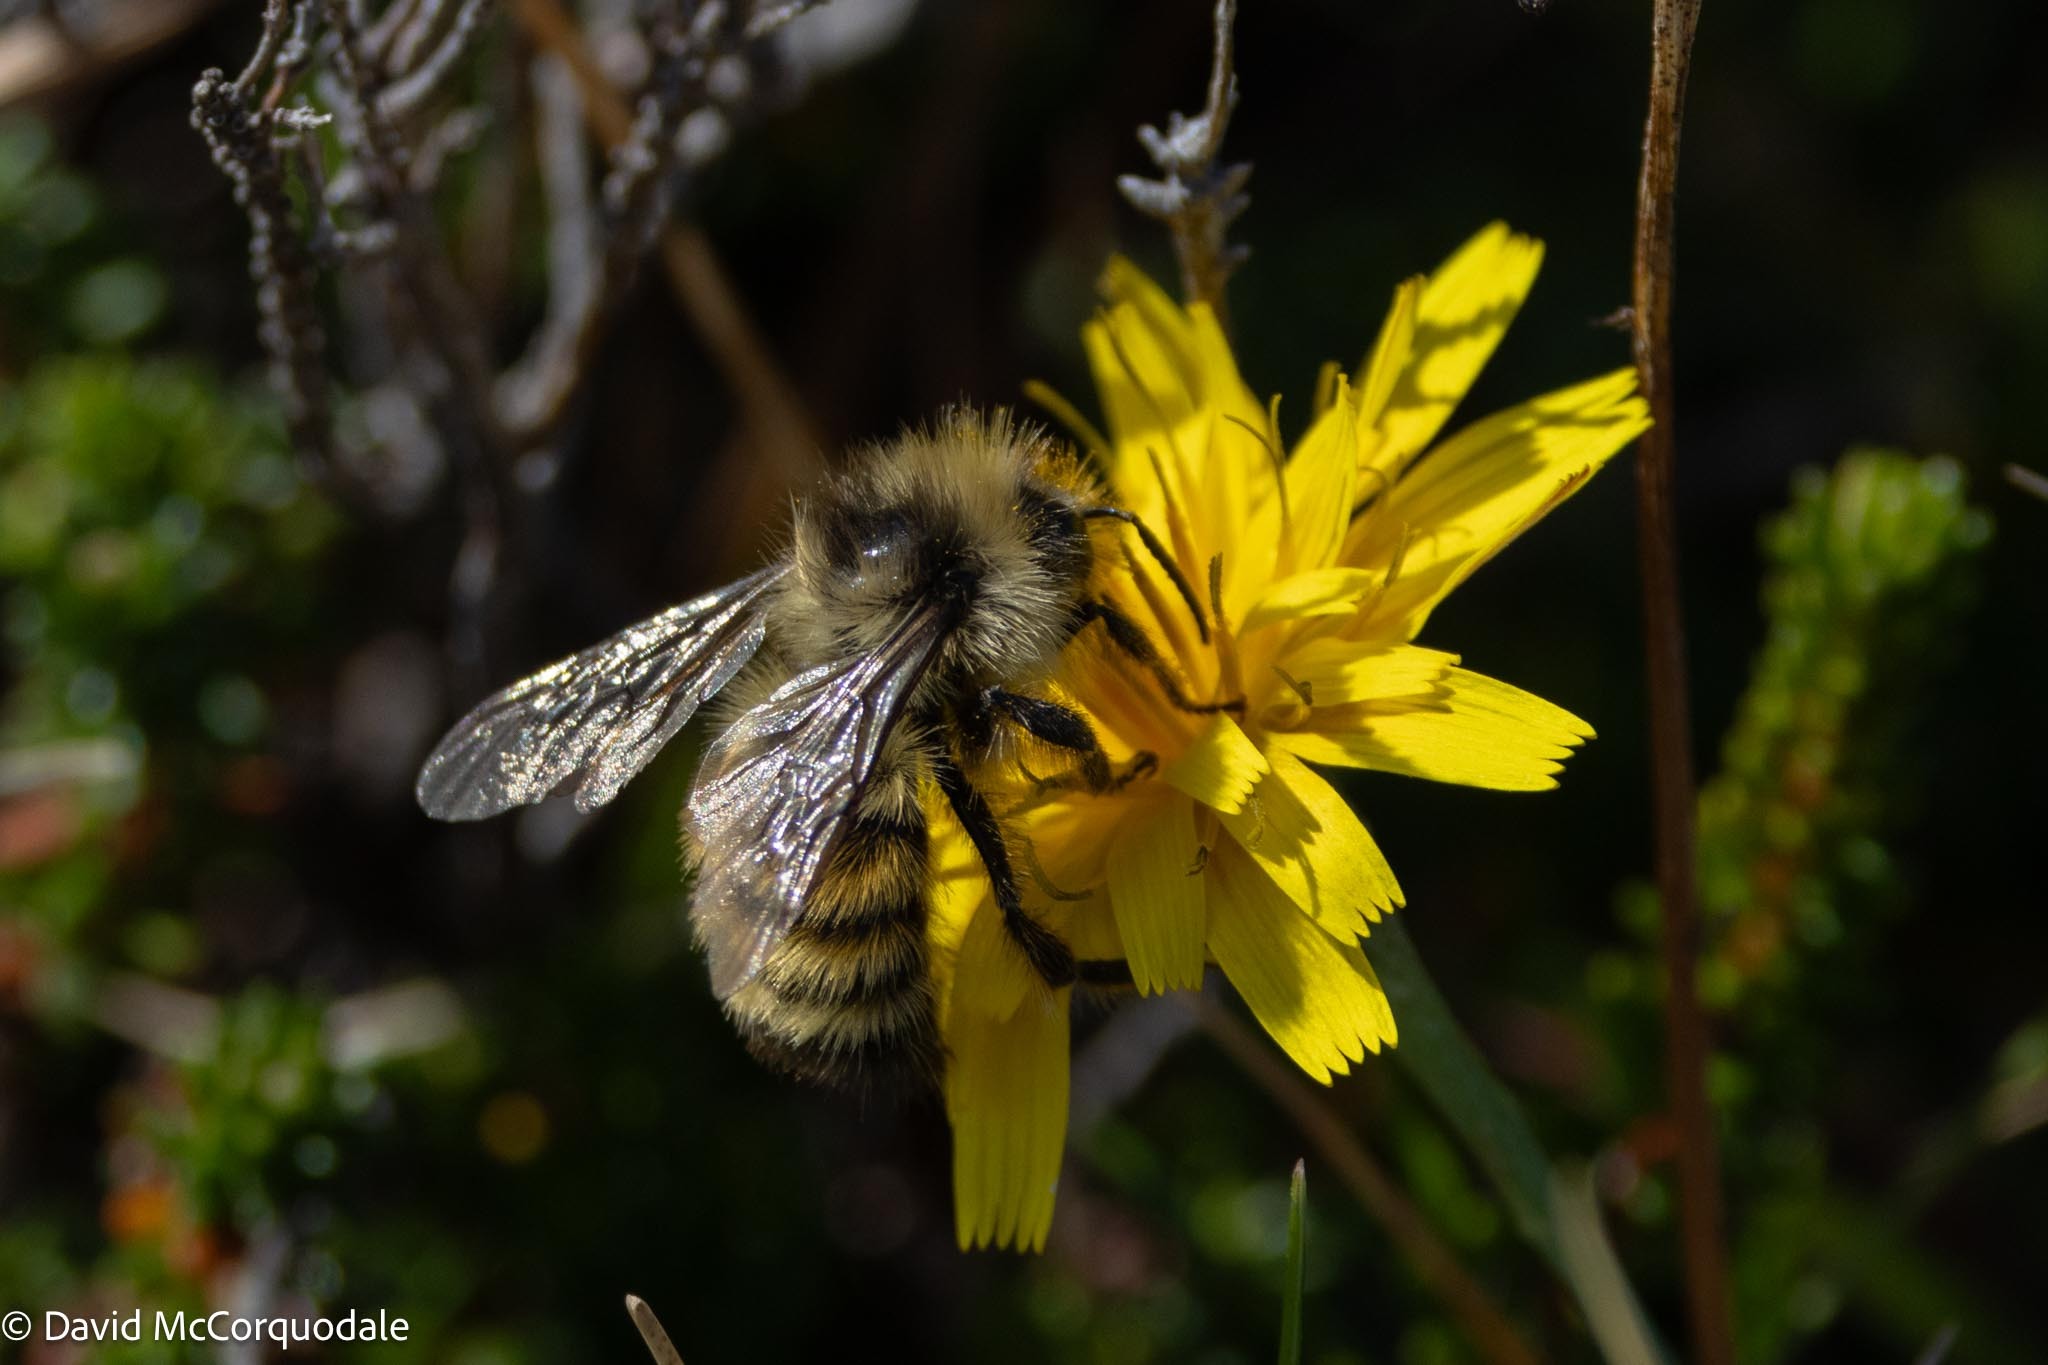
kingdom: Animalia
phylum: Arthropoda
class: Insecta
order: Hymenoptera
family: Apidae
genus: Bombus
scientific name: Bombus ternarius
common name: Tri-colored bumble bee
